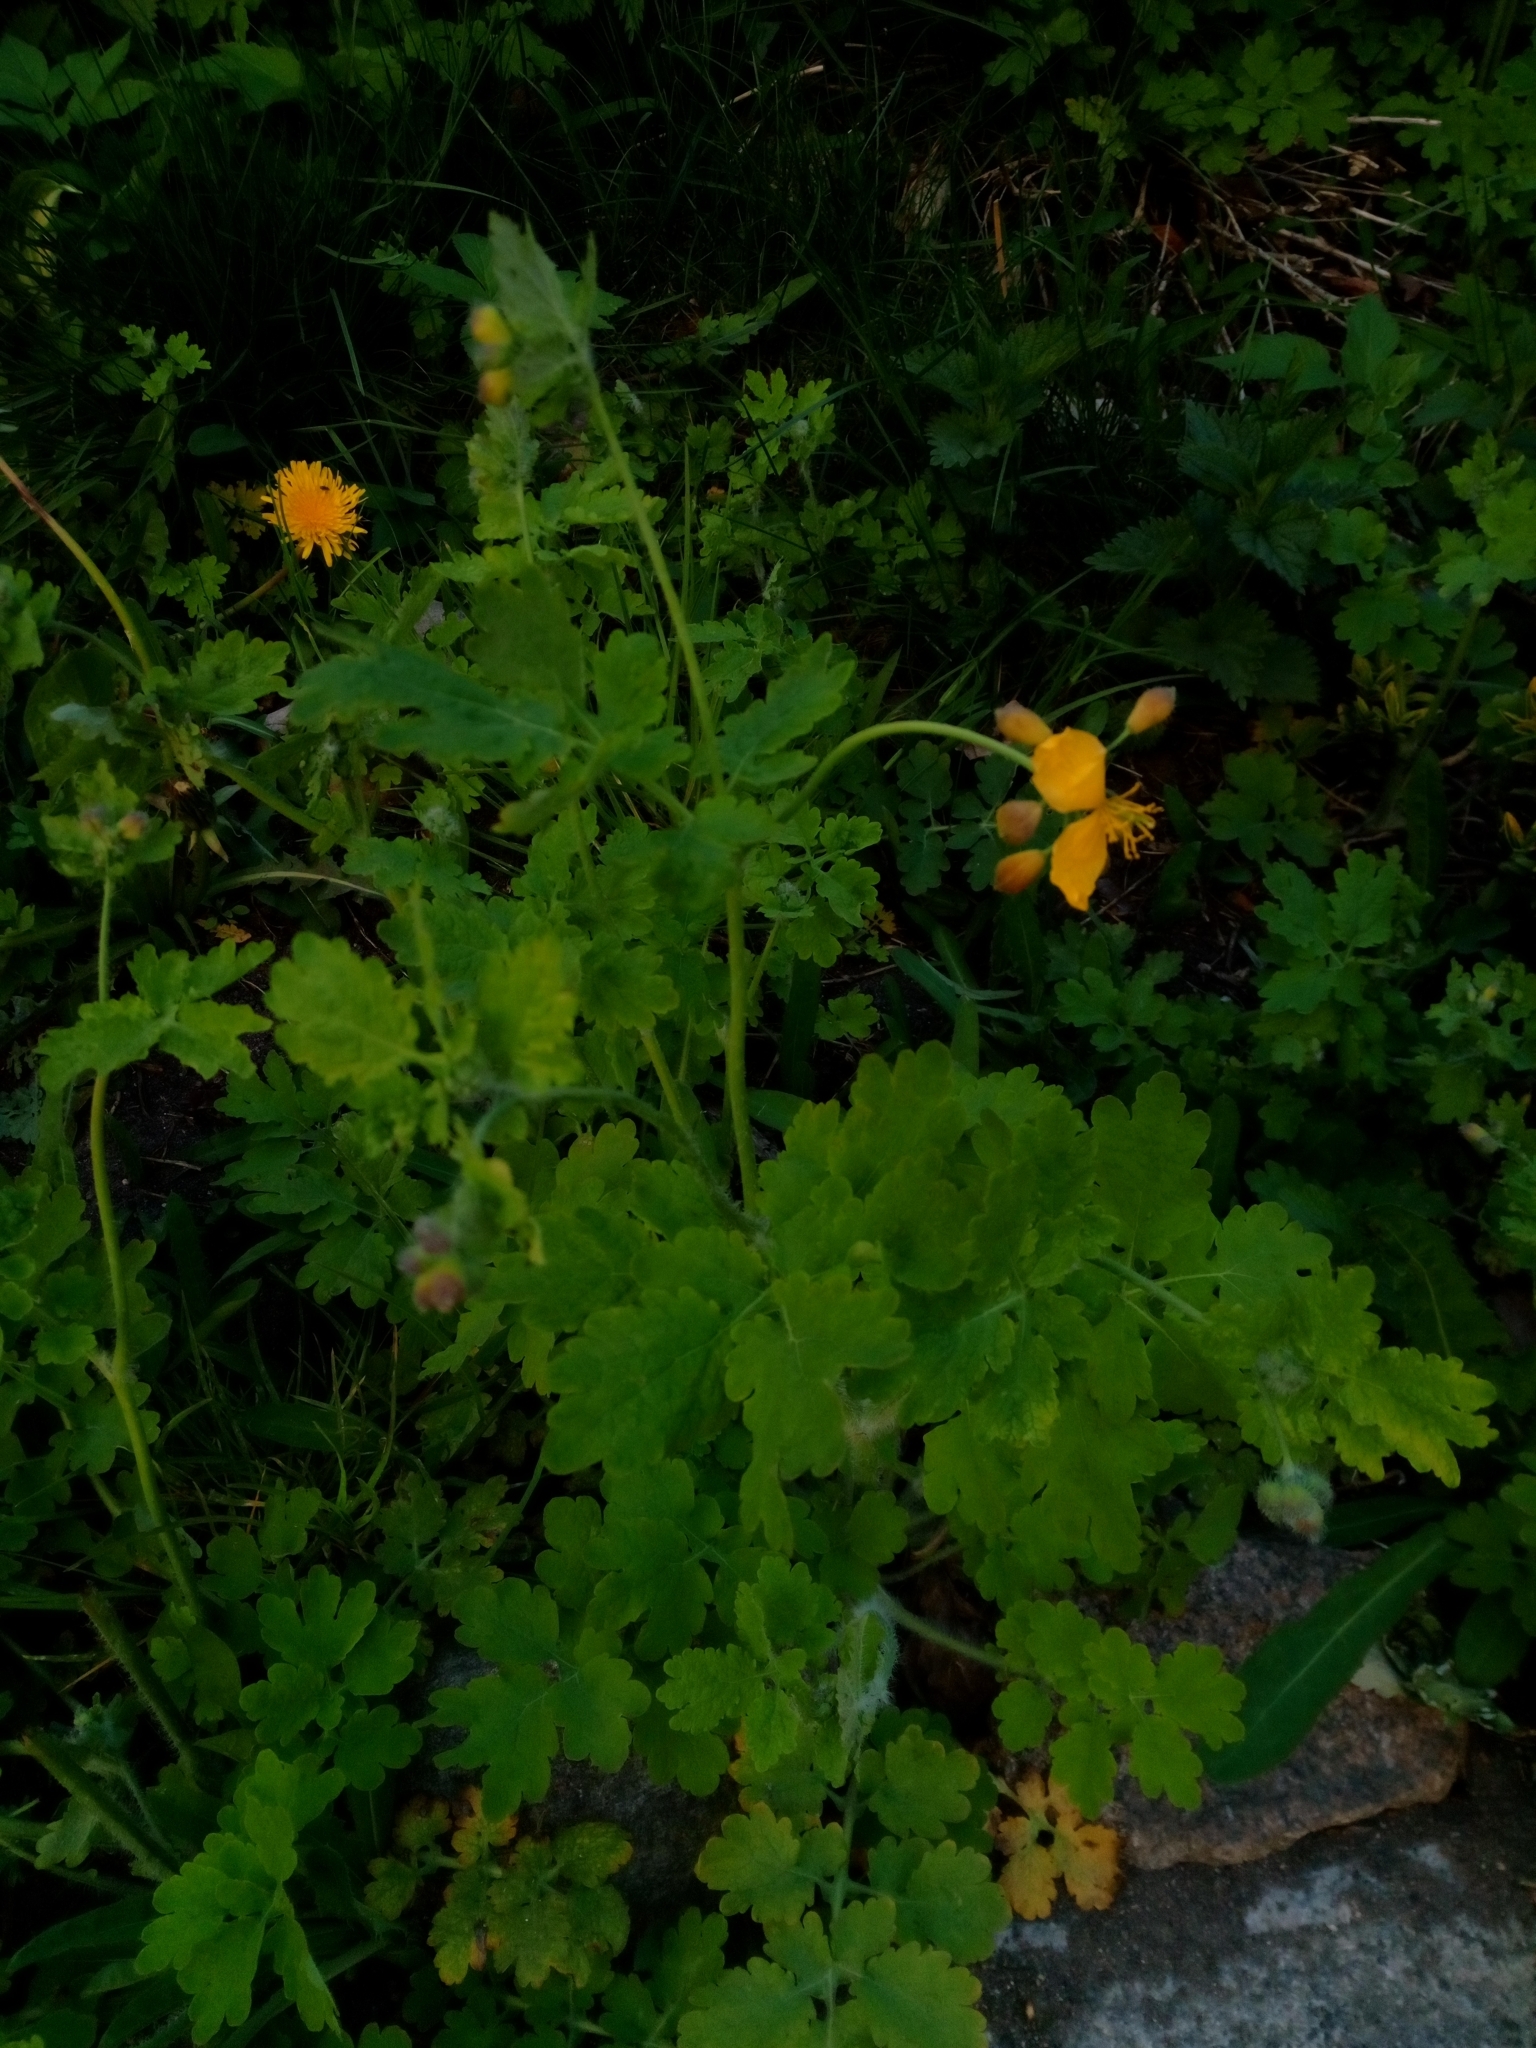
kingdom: Plantae
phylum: Tracheophyta
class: Magnoliopsida
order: Ranunculales
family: Papaveraceae
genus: Chelidonium
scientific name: Chelidonium majus
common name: Greater celandine
